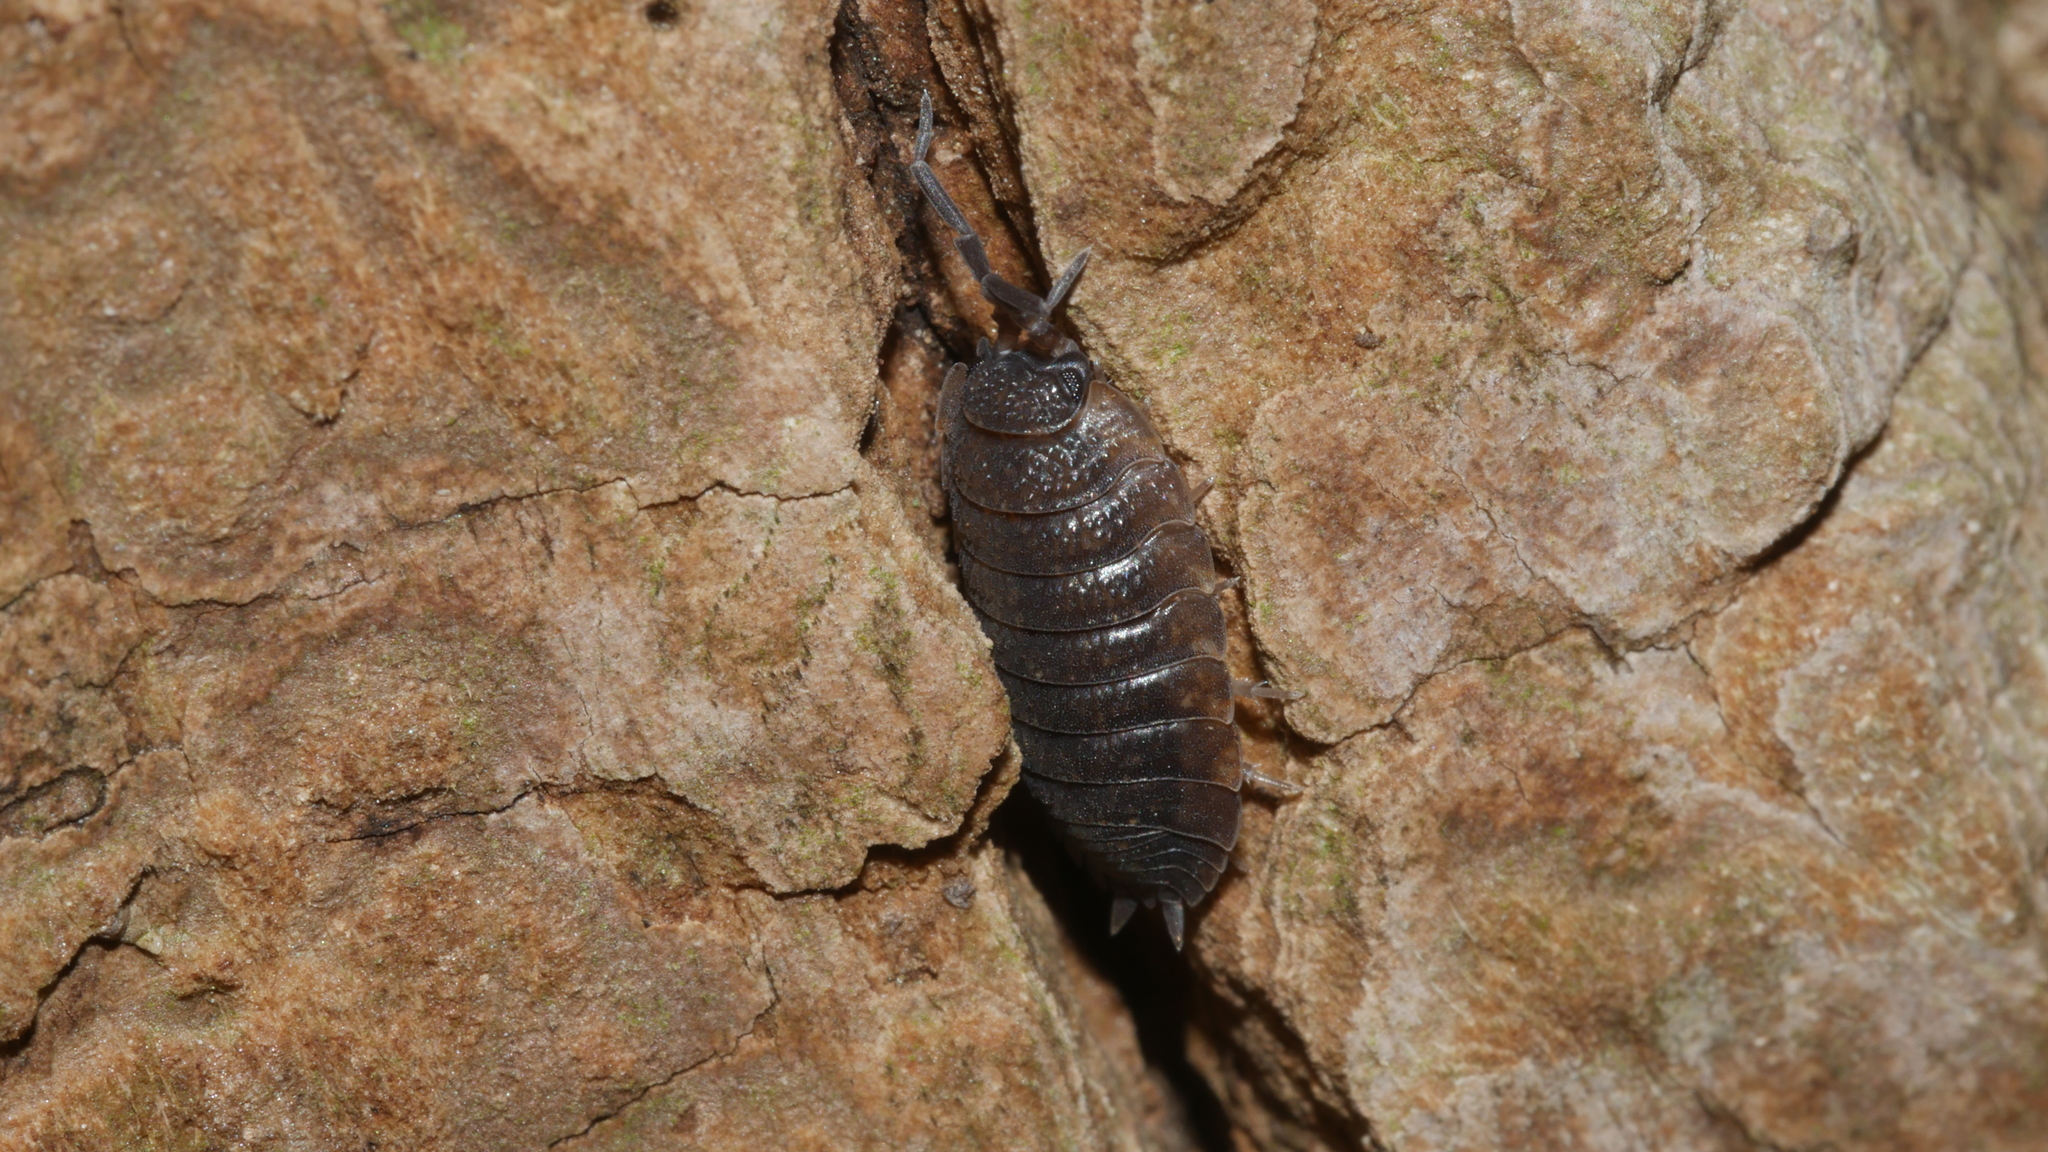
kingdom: Animalia
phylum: Arthropoda
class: Malacostraca
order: Isopoda
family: Porcellionidae
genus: Porcellio
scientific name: Porcellio scaber
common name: Common rough woodlouse
